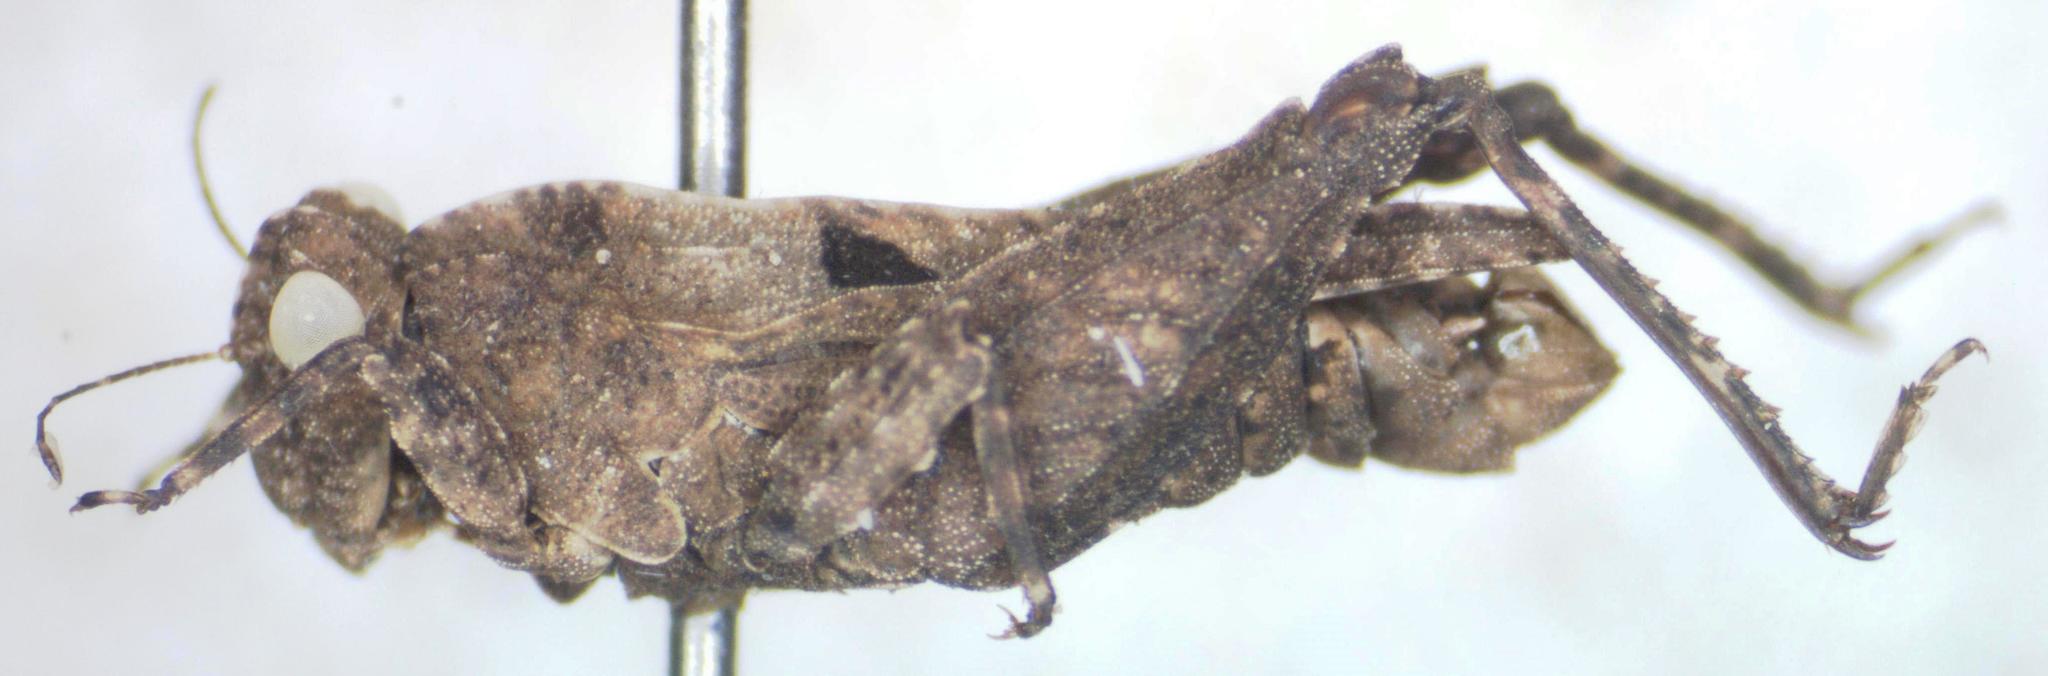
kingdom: Animalia
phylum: Arthropoda
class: Insecta
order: Orthoptera
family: Tetrigidae
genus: Ochetotettix
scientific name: Ochetotettix barretti
